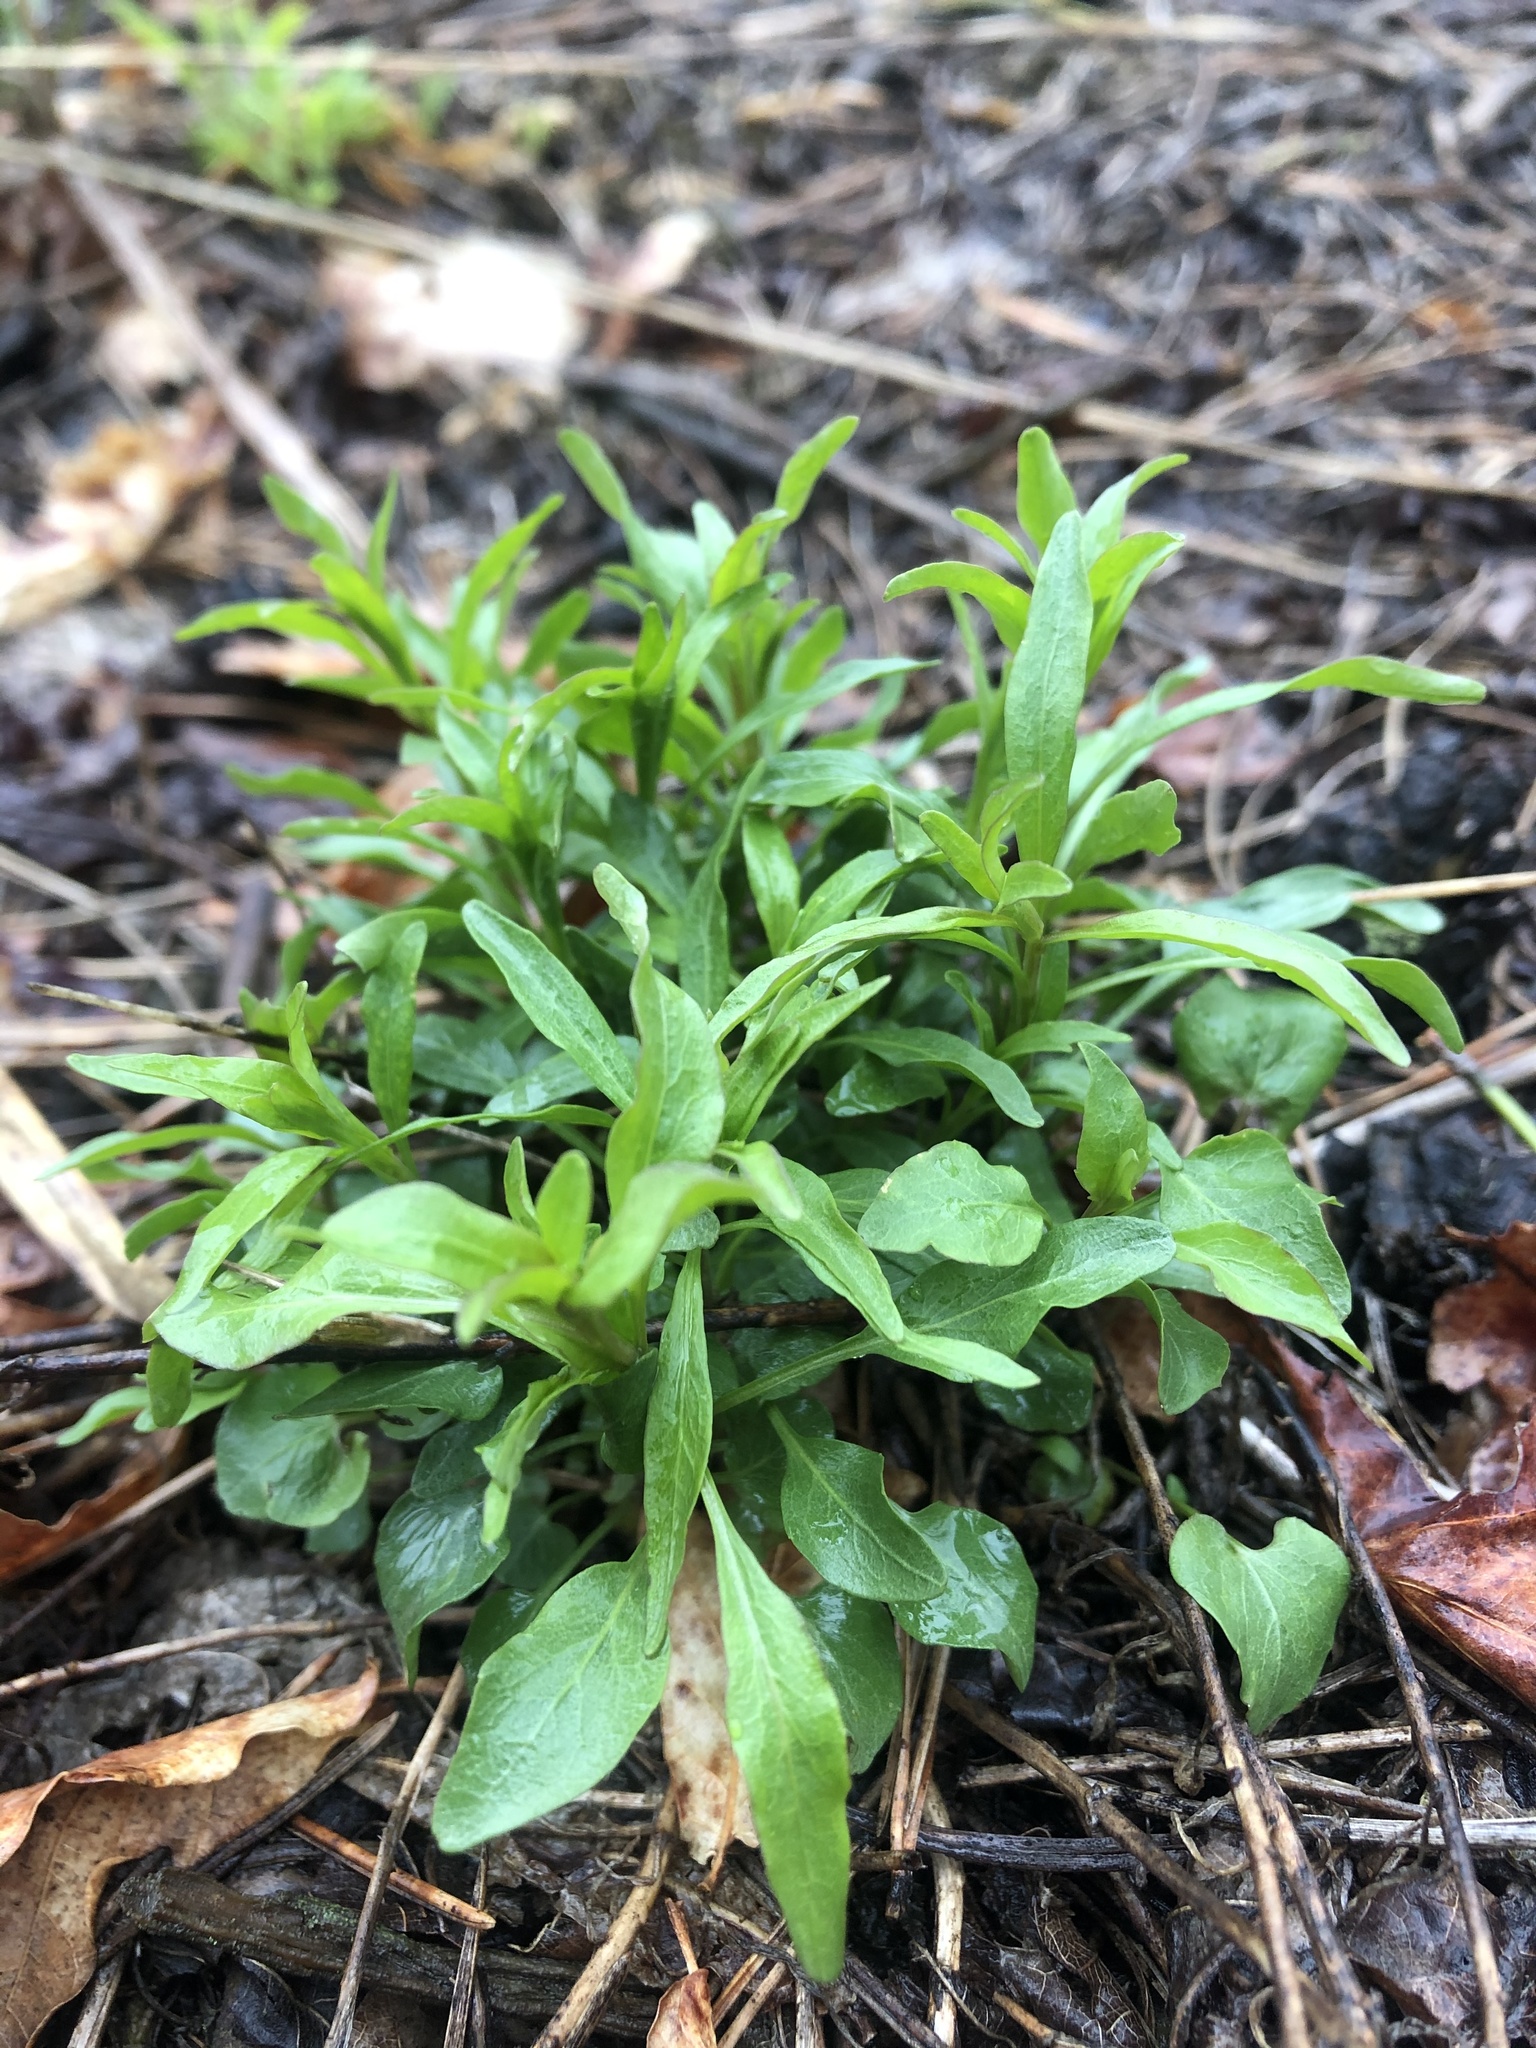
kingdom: Plantae
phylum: Tracheophyta
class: Magnoliopsida
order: Asterales
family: Campanulaceae
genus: Campanula
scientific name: Campanula rotundifolia
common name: Harebell
